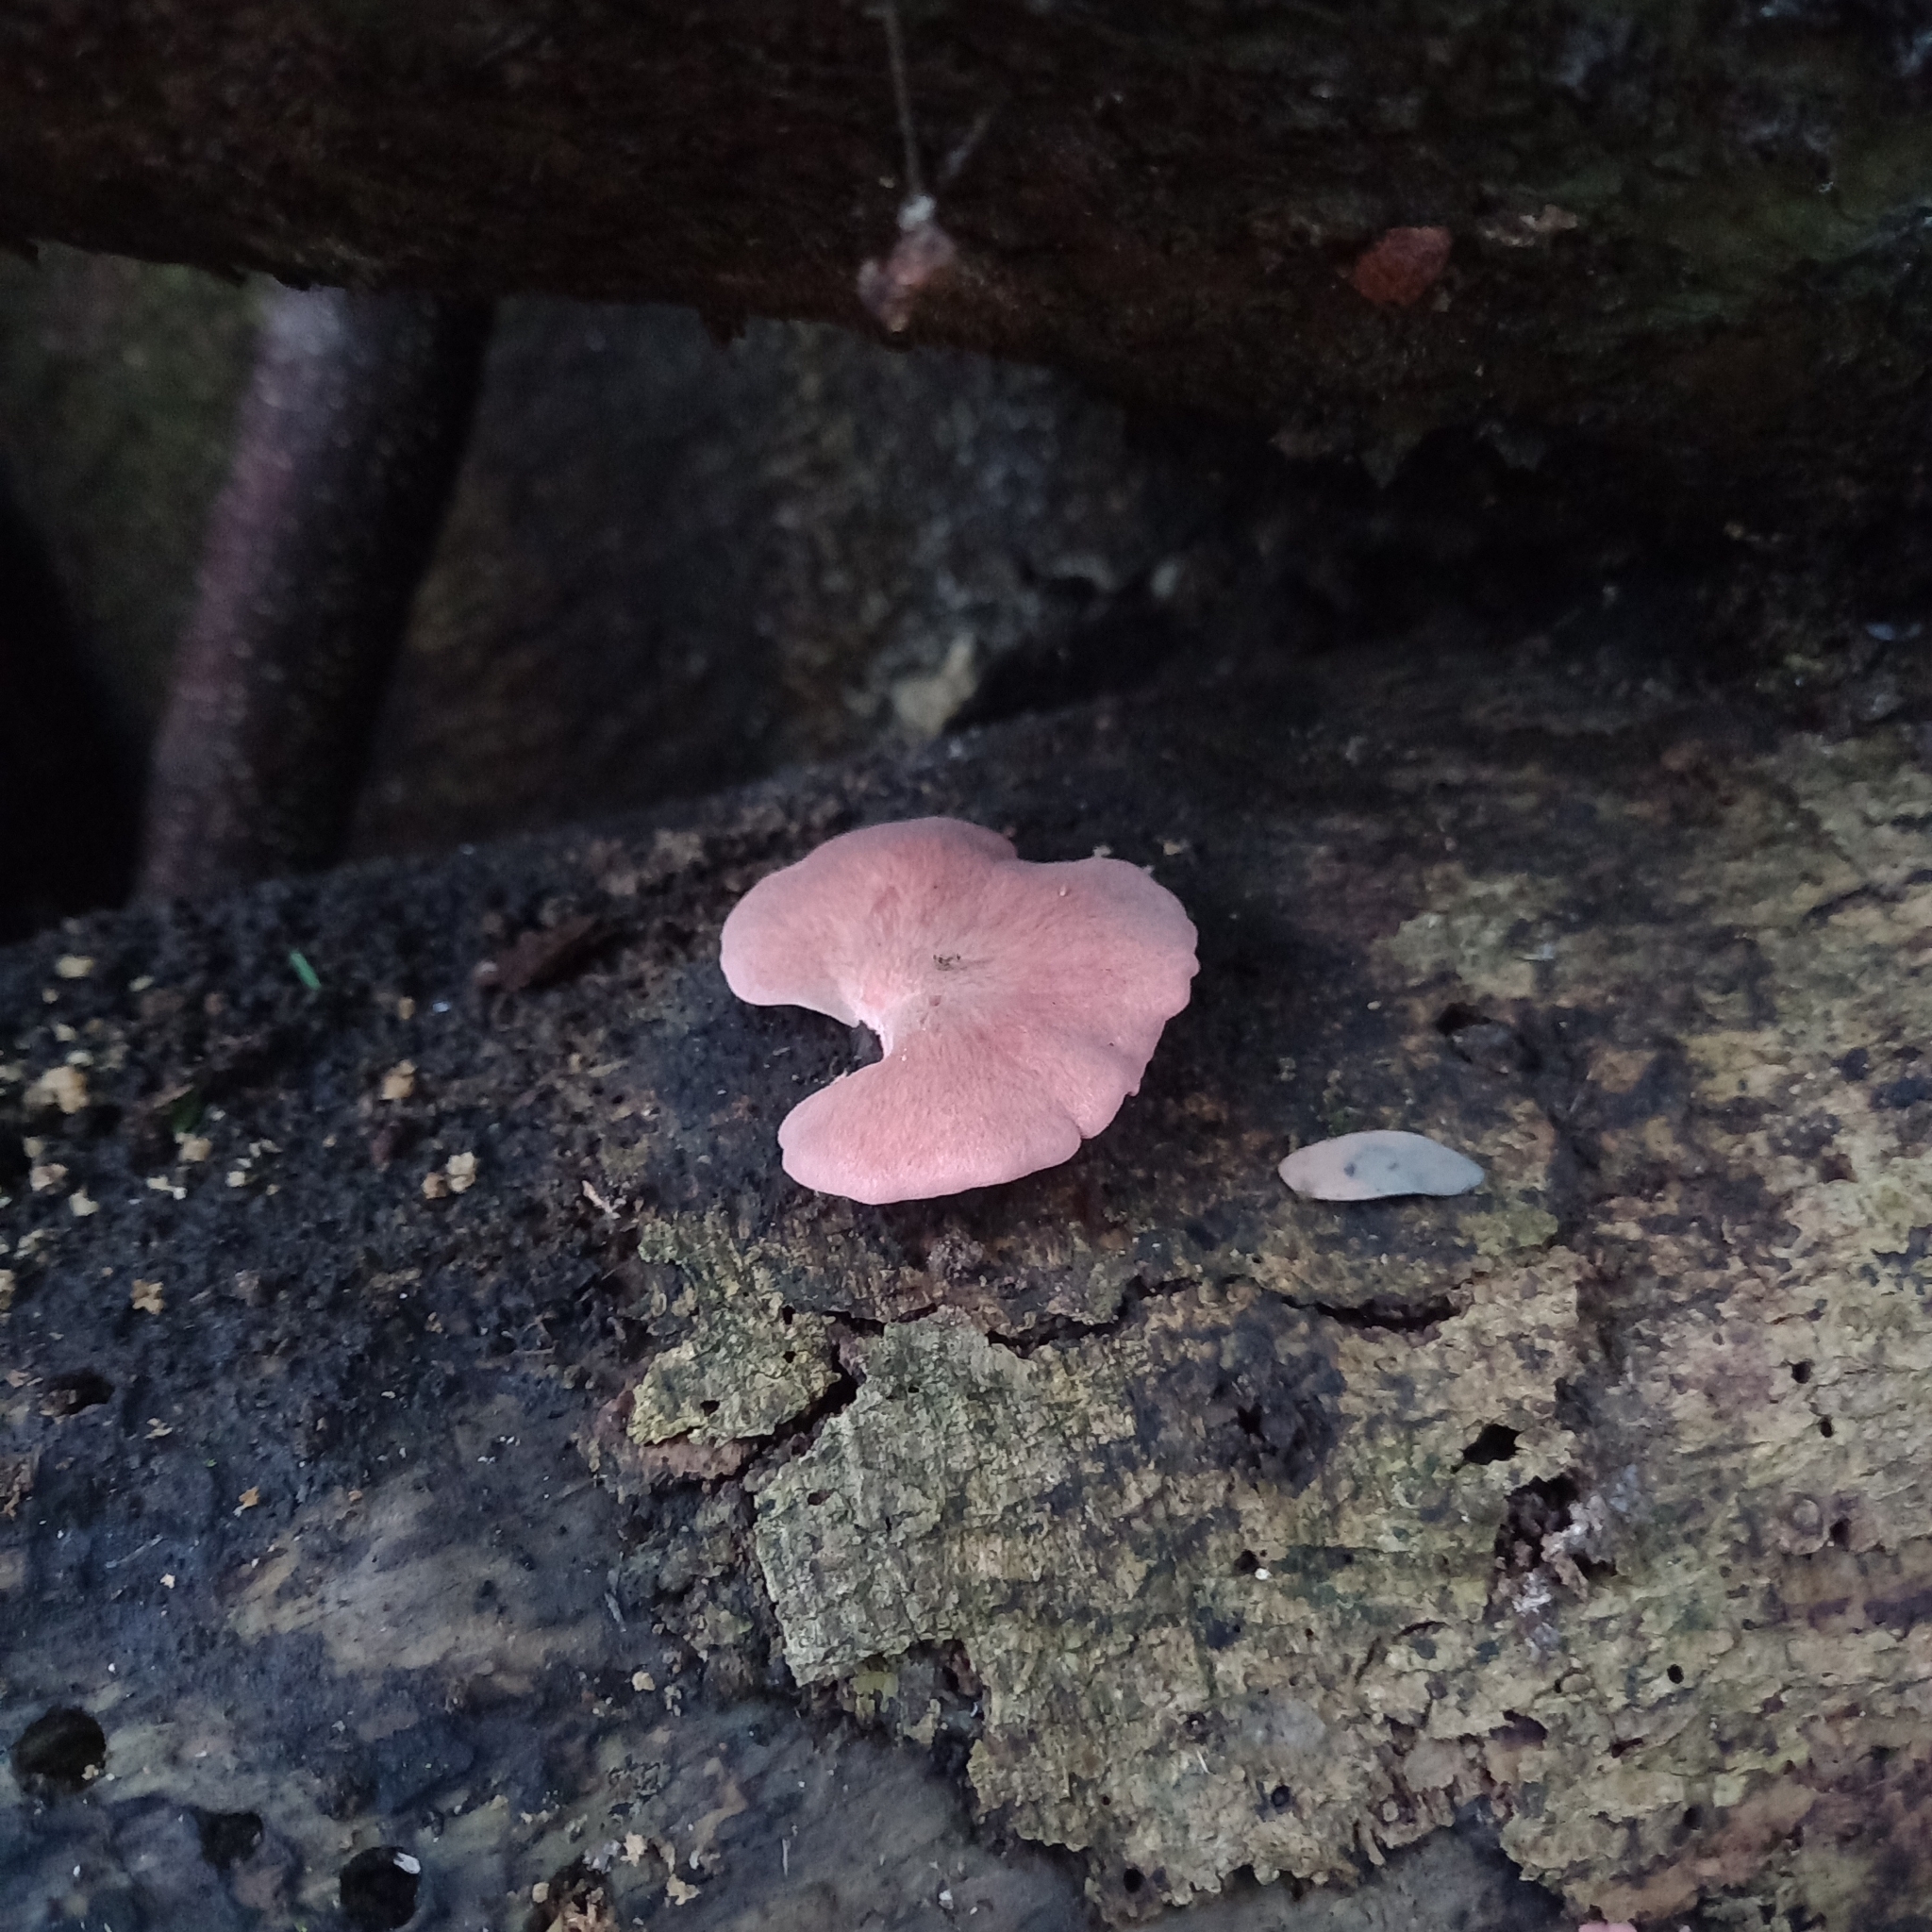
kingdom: Fungi
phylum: Basidiomycota
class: Agaricomycetes
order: Agaricales
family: Pleurotaceae
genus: Pleurotus
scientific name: Pleurotus djamor
